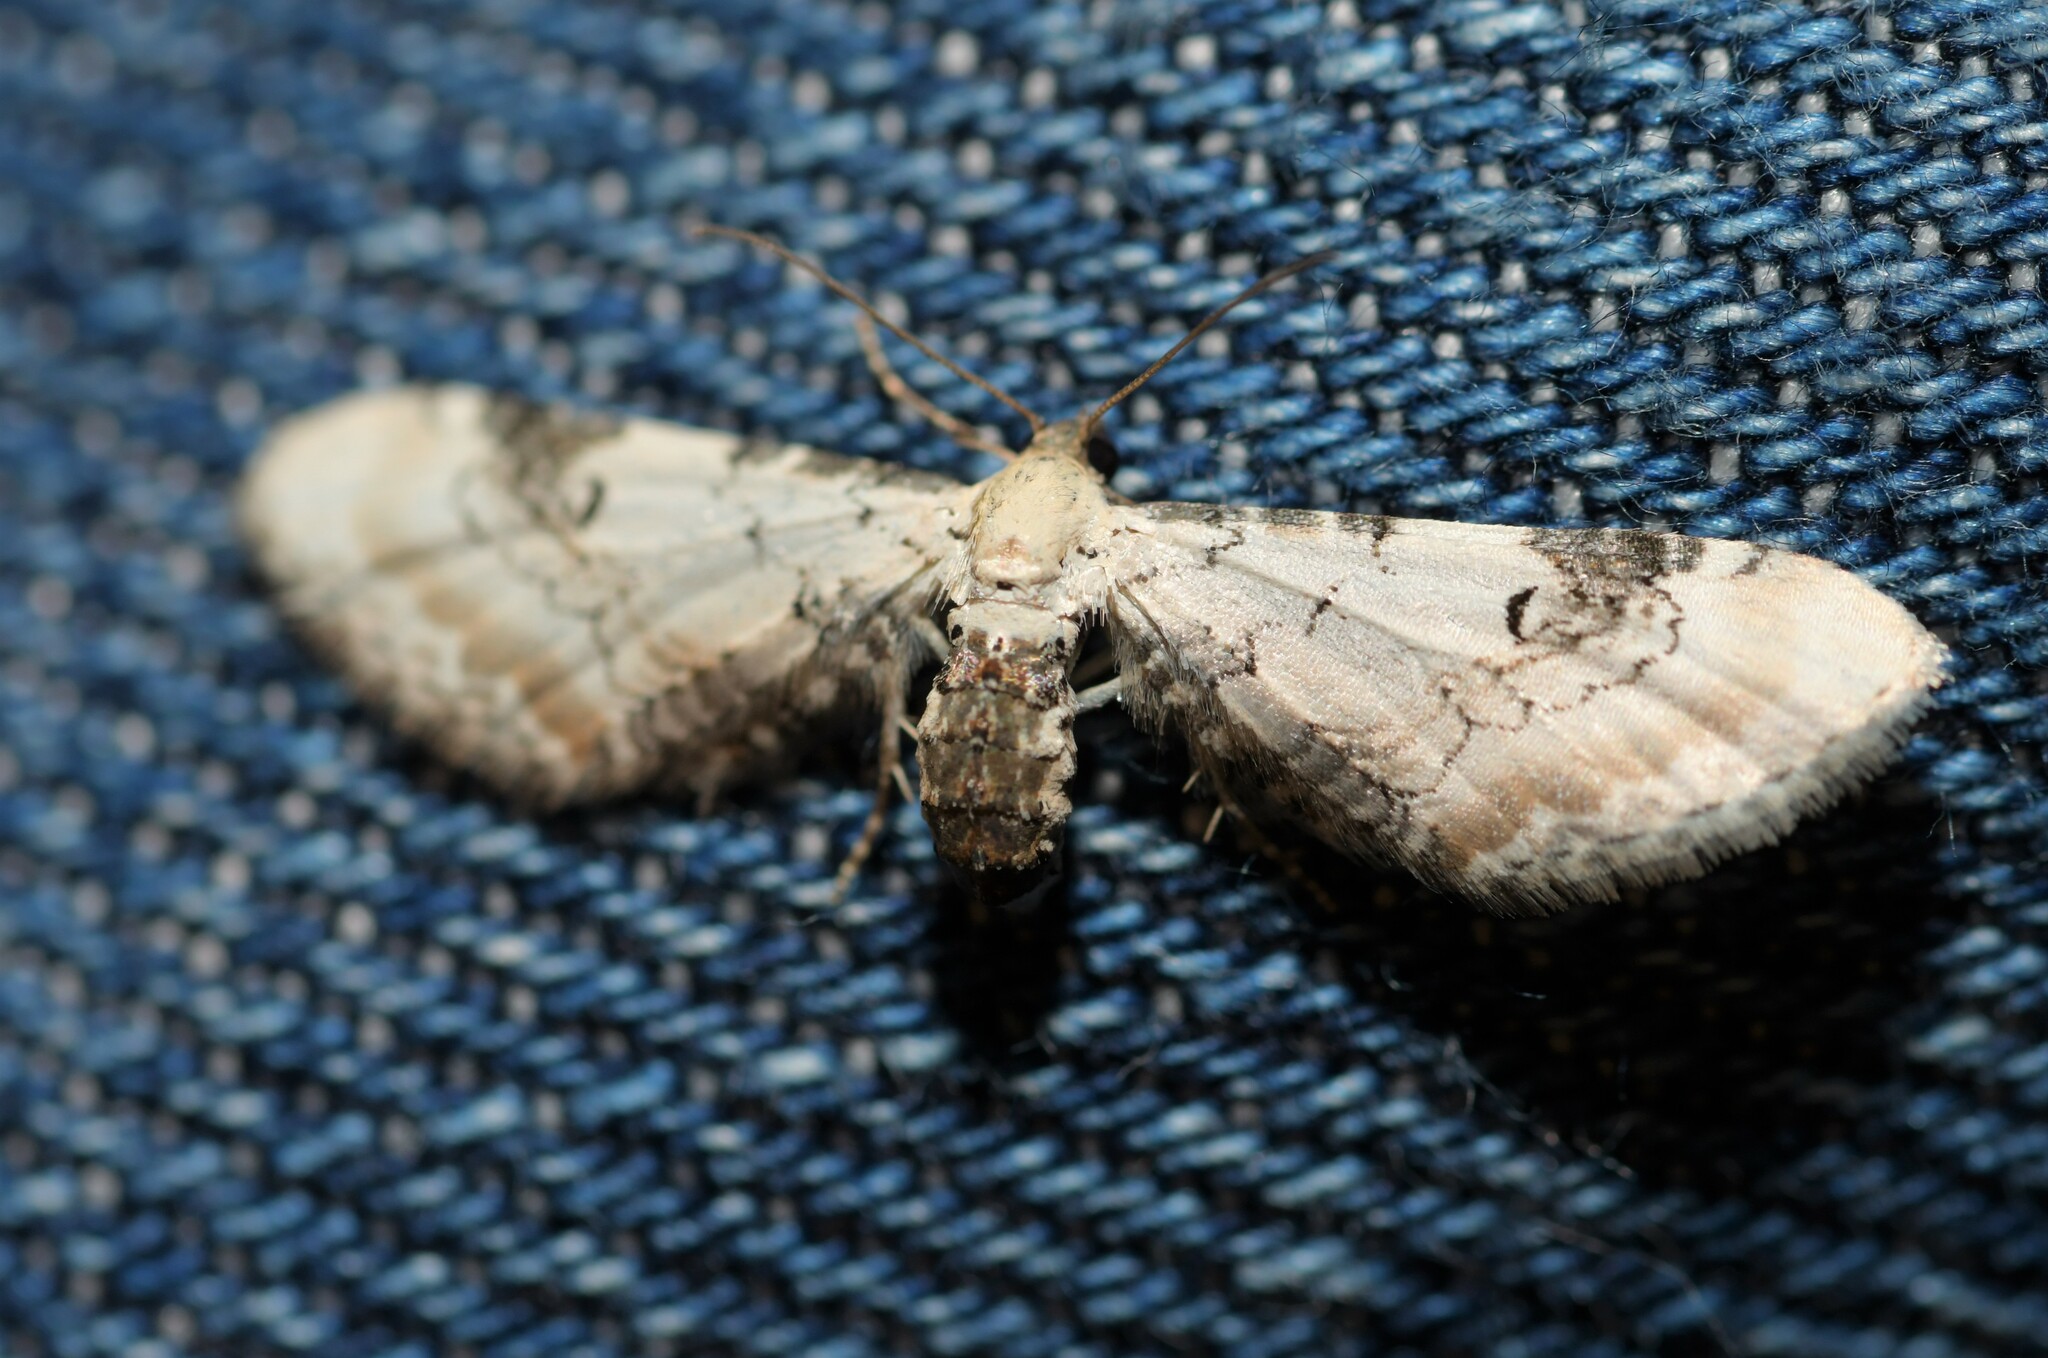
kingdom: Animalia
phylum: Arthropoda
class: Insecta
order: Lepidoptera
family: Geometridae
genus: Eupithecia
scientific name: Eupithecia centaureata
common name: Lime-speck pug
